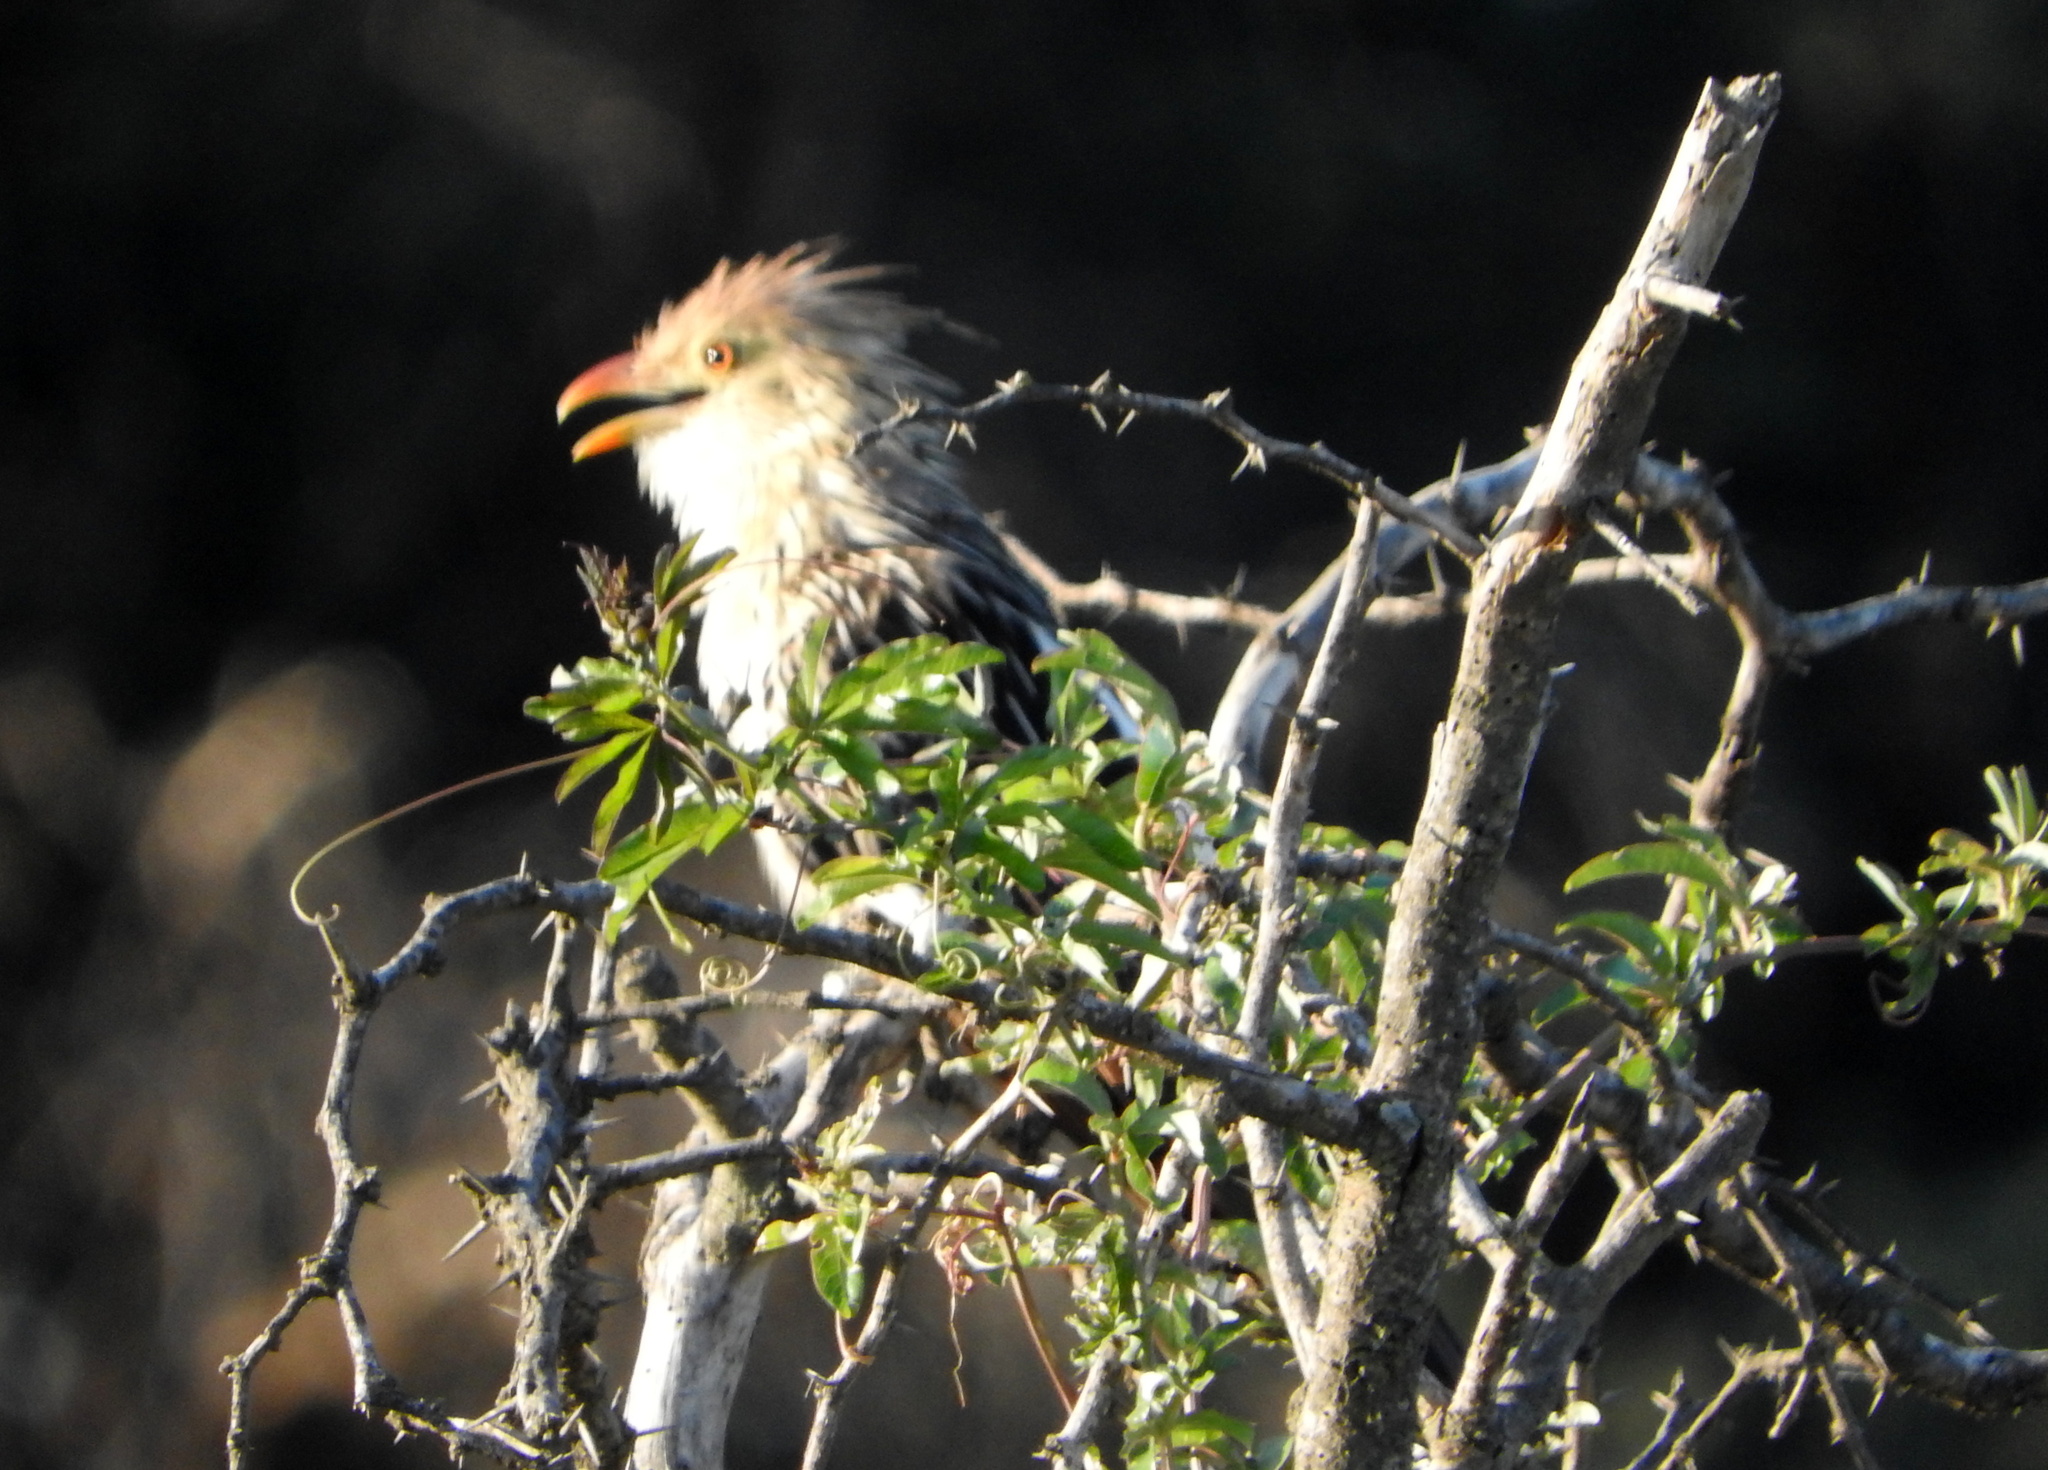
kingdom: Animalia
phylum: Chordata
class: Aves
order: Cuculiformes
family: Cuculidae
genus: Guira
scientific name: Guira guira
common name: Guira cuckoo
